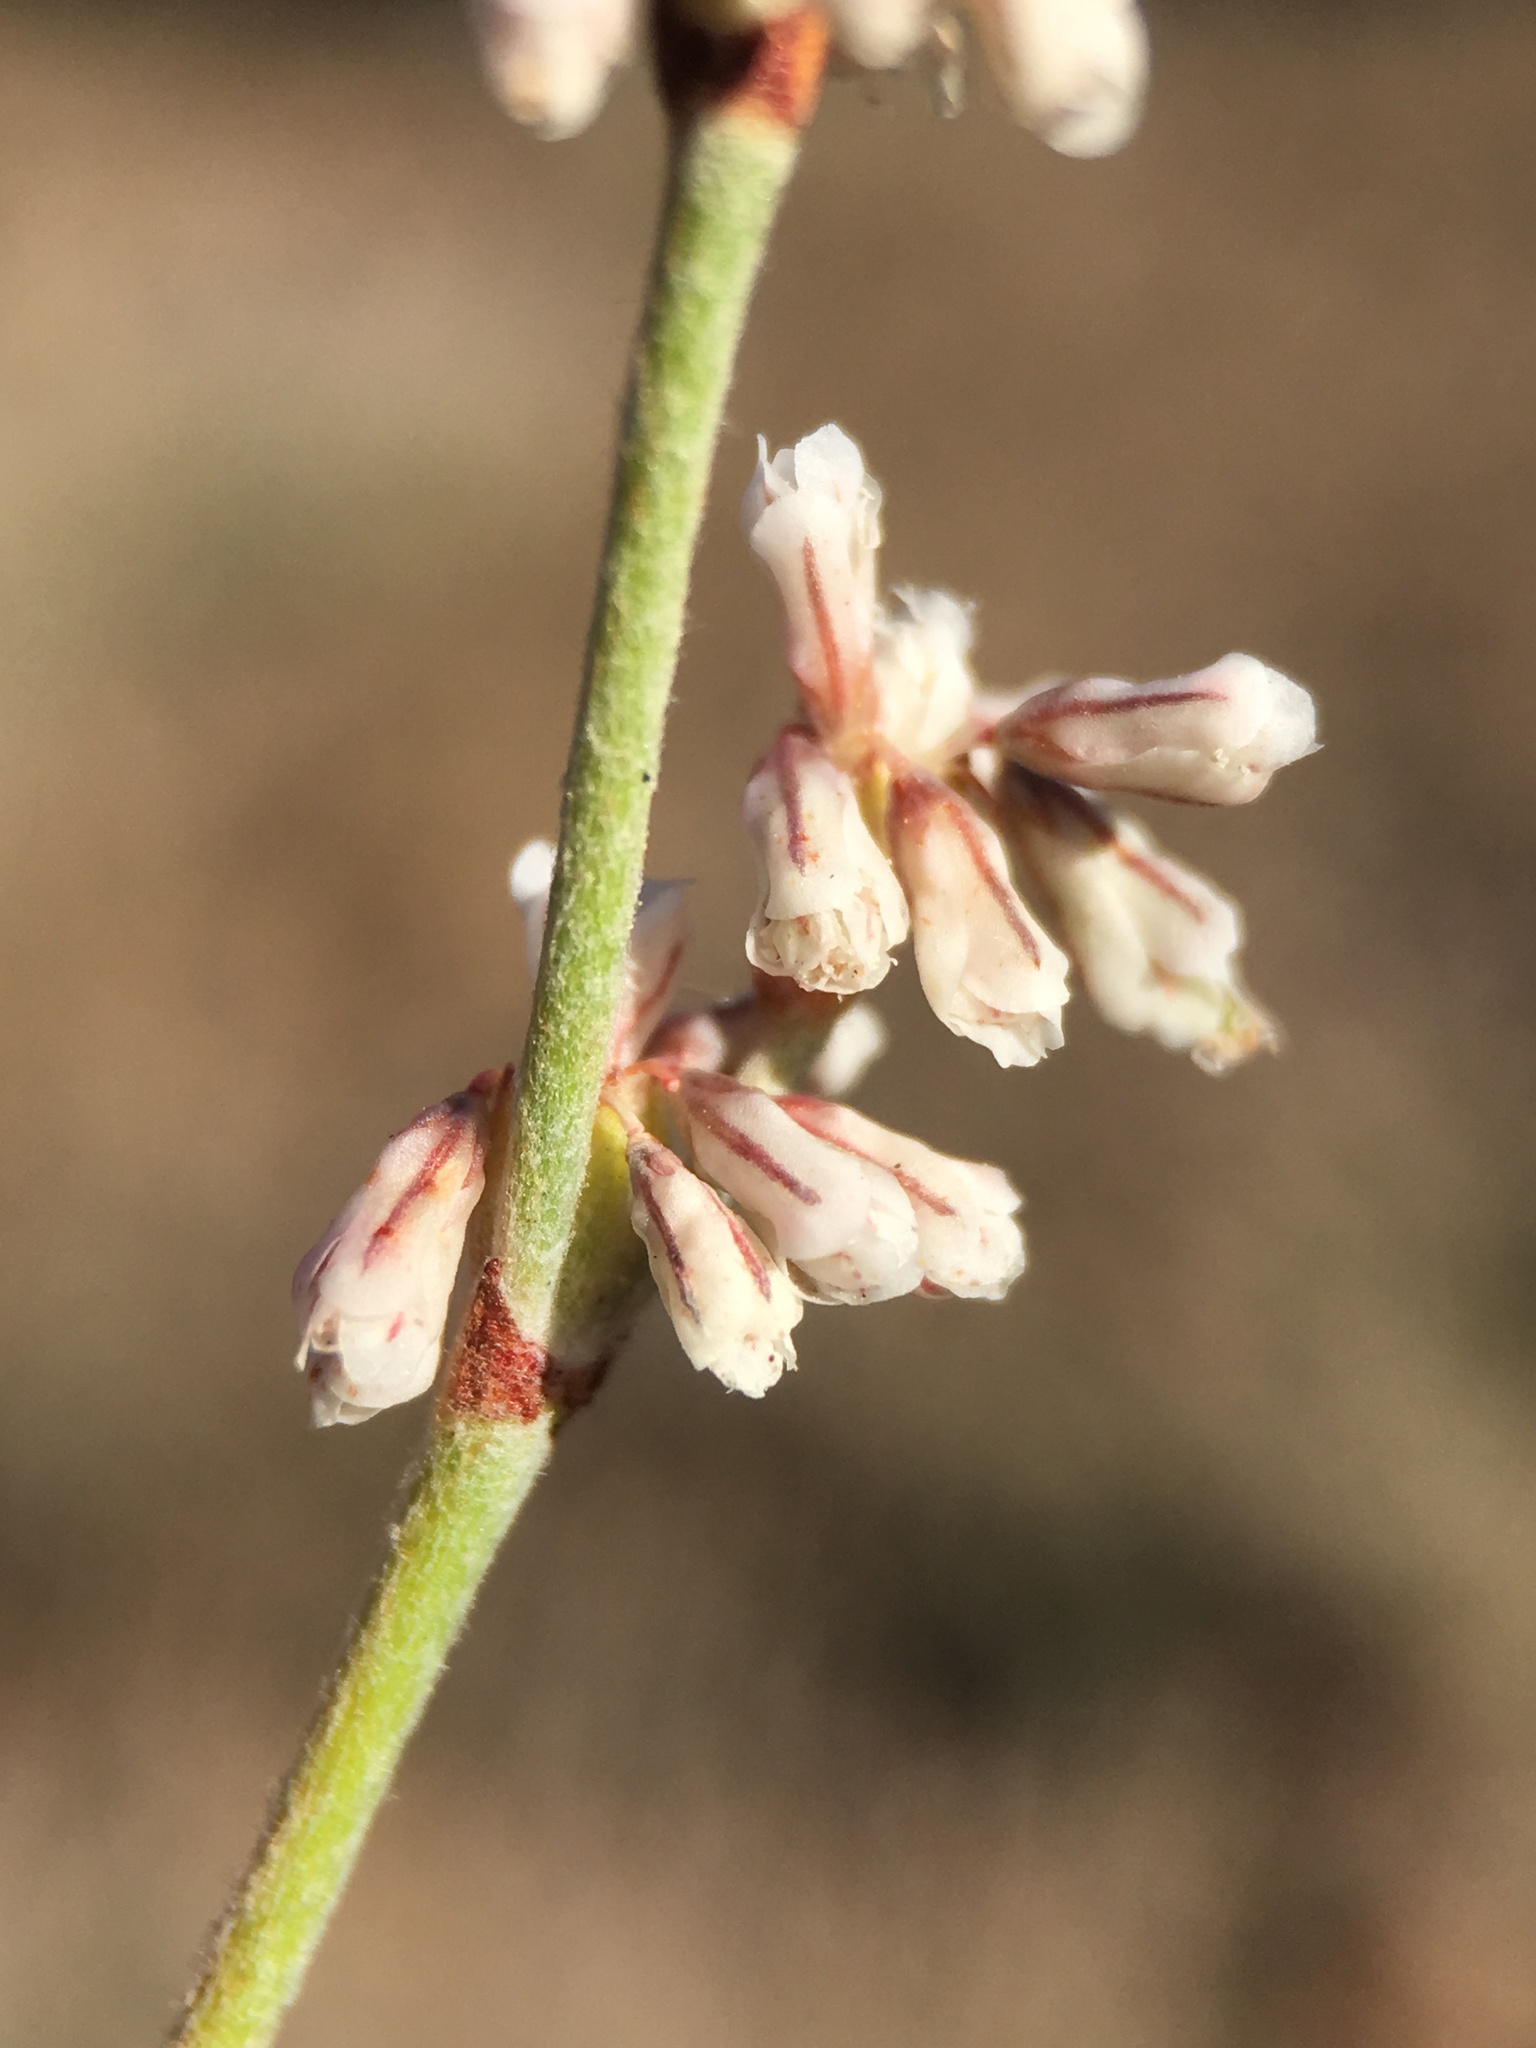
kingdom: Plantae
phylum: Tracheophyta
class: Magnoliopsida
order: Caryophyllales
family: Polygonaceae
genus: Eriogonum
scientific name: Eriogonum wrightii
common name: Bastard-sage
